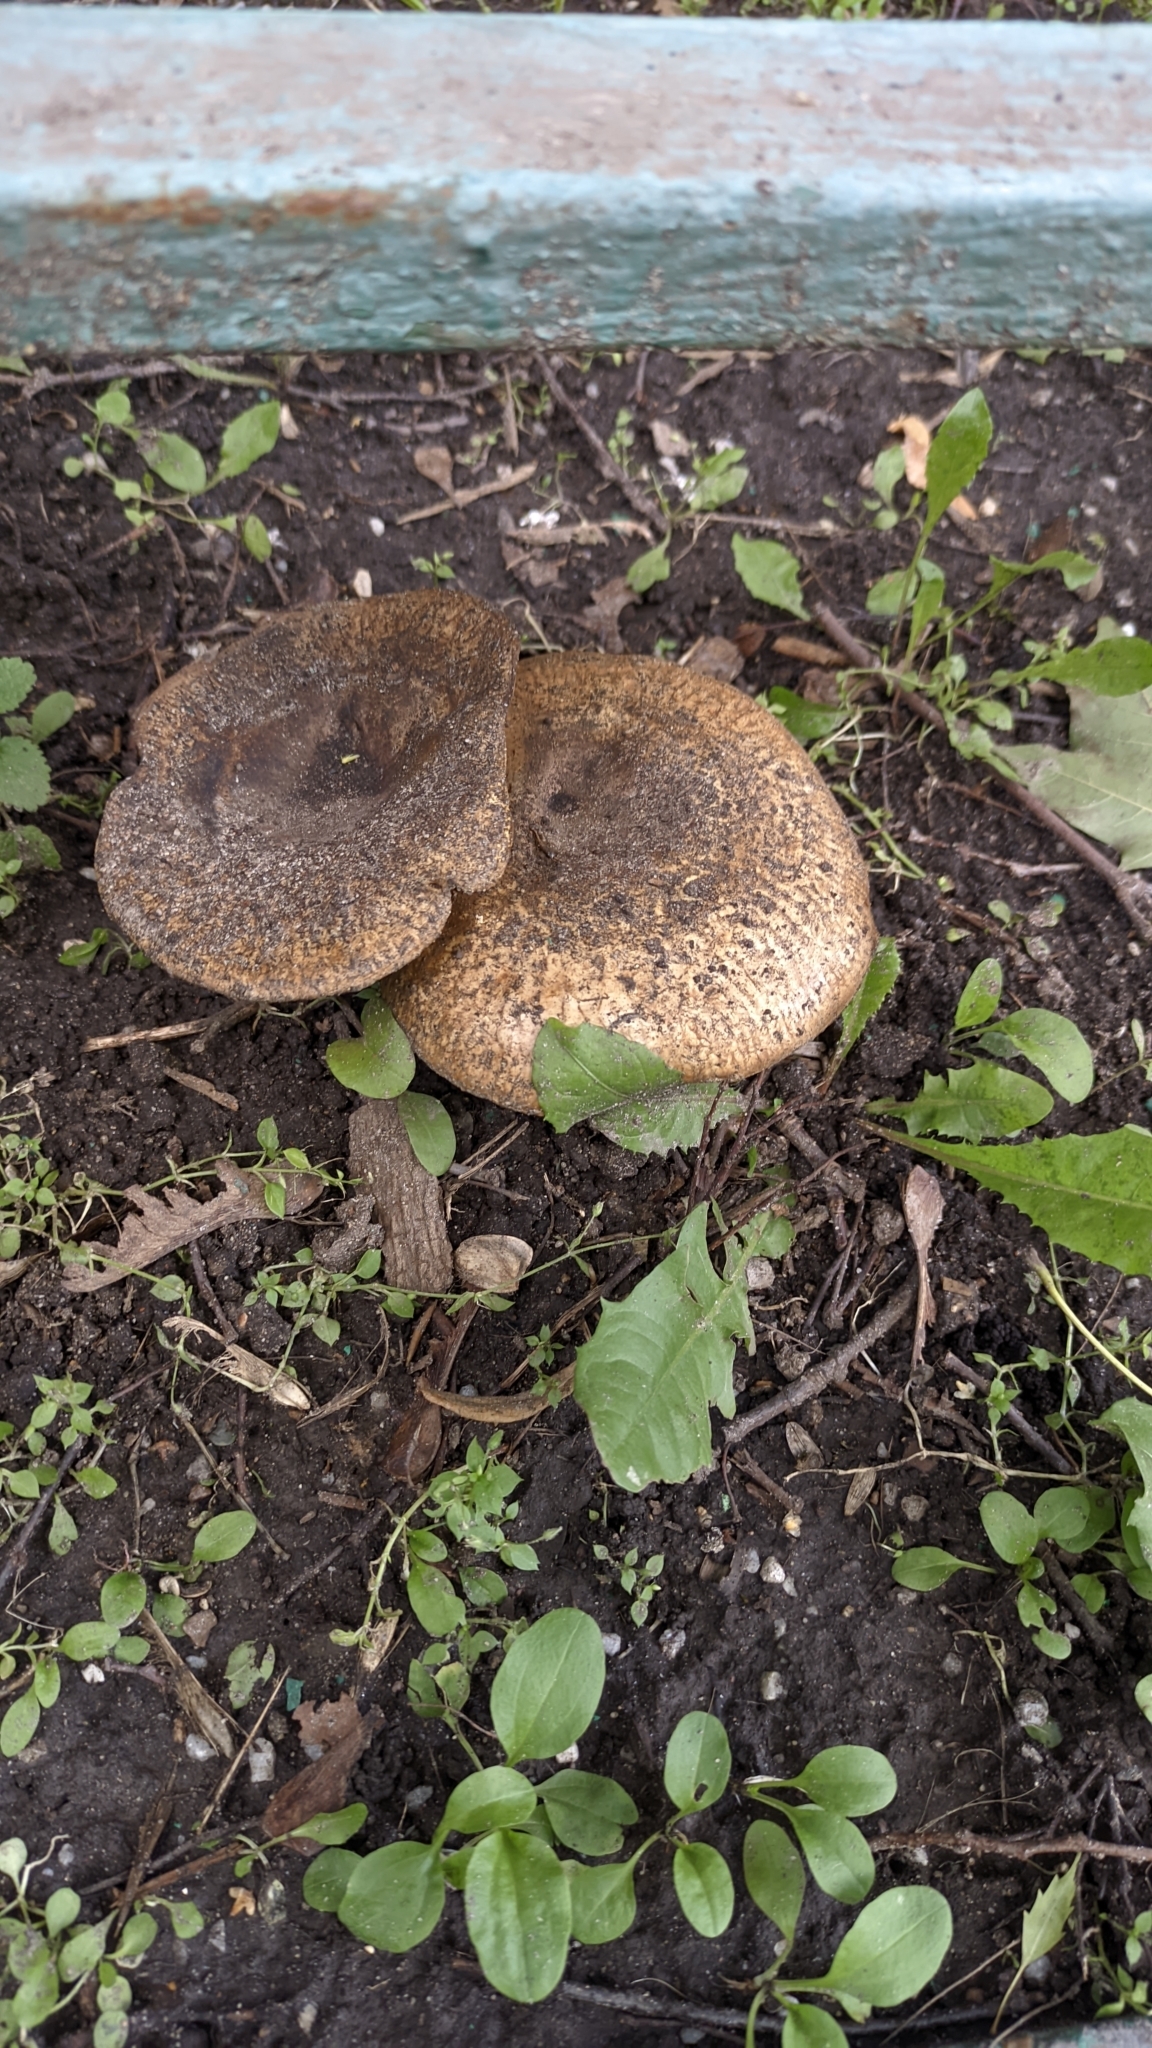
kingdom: Fungi
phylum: Basidiomycota
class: Agaricomycetes
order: Boletales
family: Paxillaceae
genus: Paxillus
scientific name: Paxillus involutus
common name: Brown roll rim
